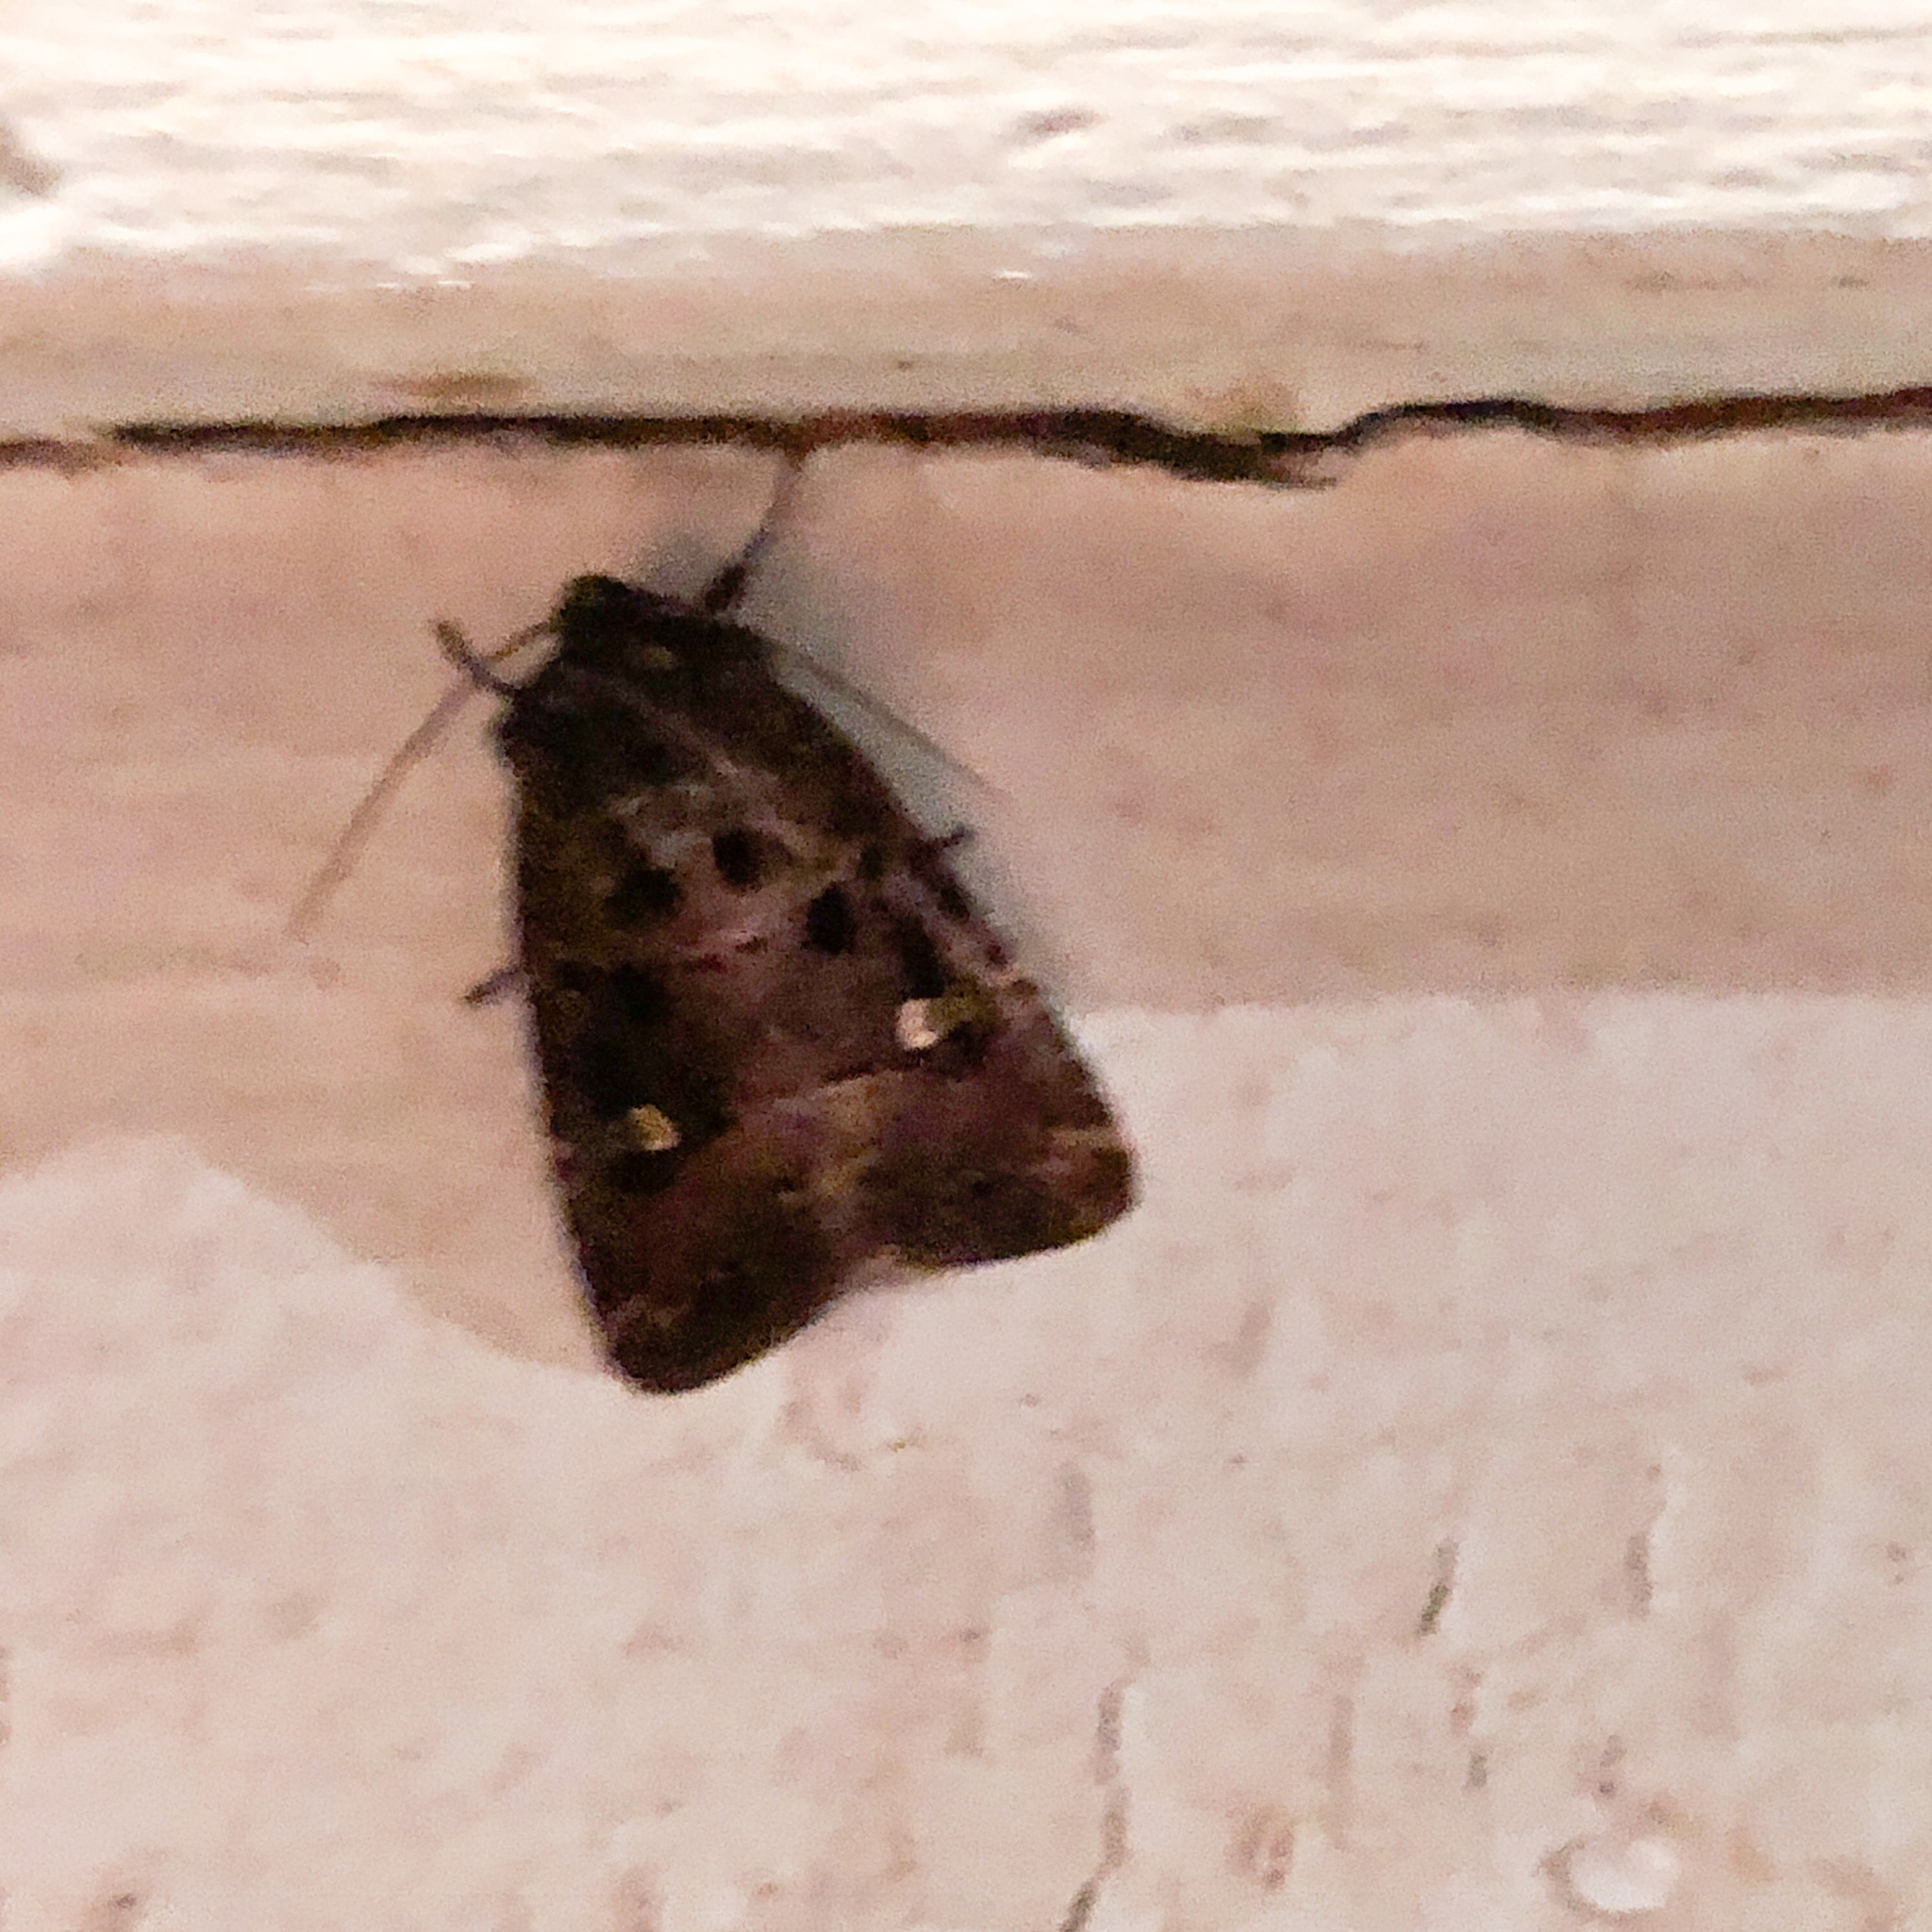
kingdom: Animalia
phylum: Arthropoda
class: Insecta
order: Lepidoptera
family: Noctuidae
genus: Lacinipolia
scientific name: Lacinipolia renigera
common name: Kidney-spotted minor
